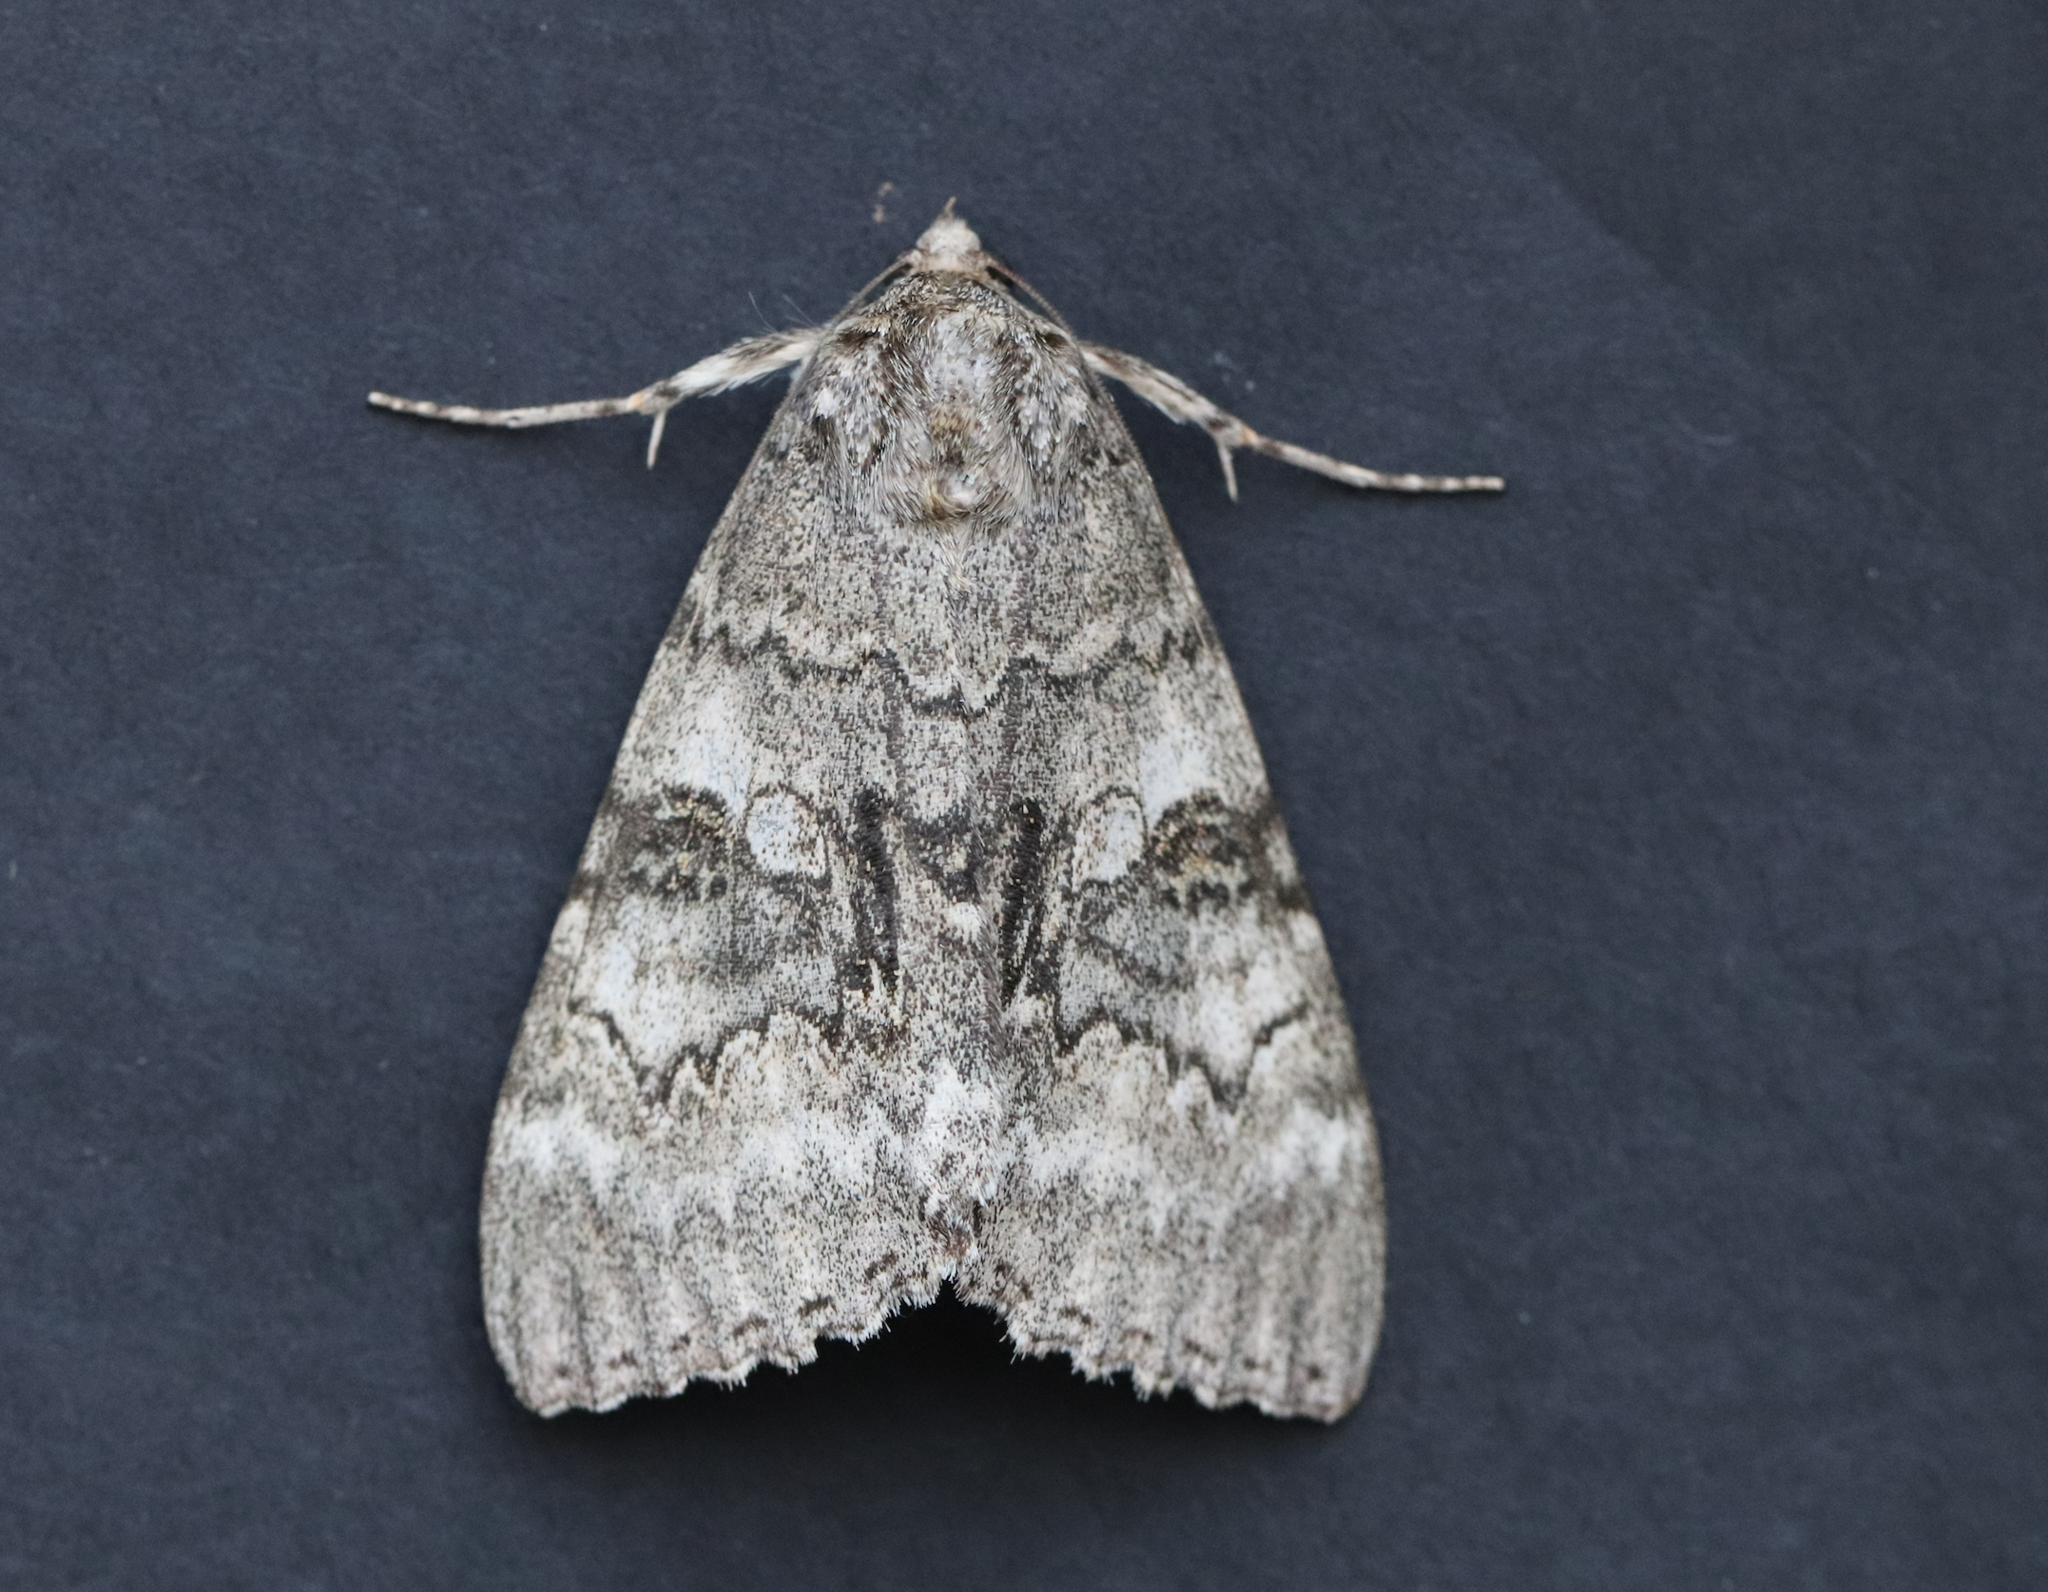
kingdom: Animalia
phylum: Arthropoda
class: Insecta
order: Lepidoptera
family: Erebidae
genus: Catocala
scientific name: Catocala fraxini
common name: Clifden nonpareil
